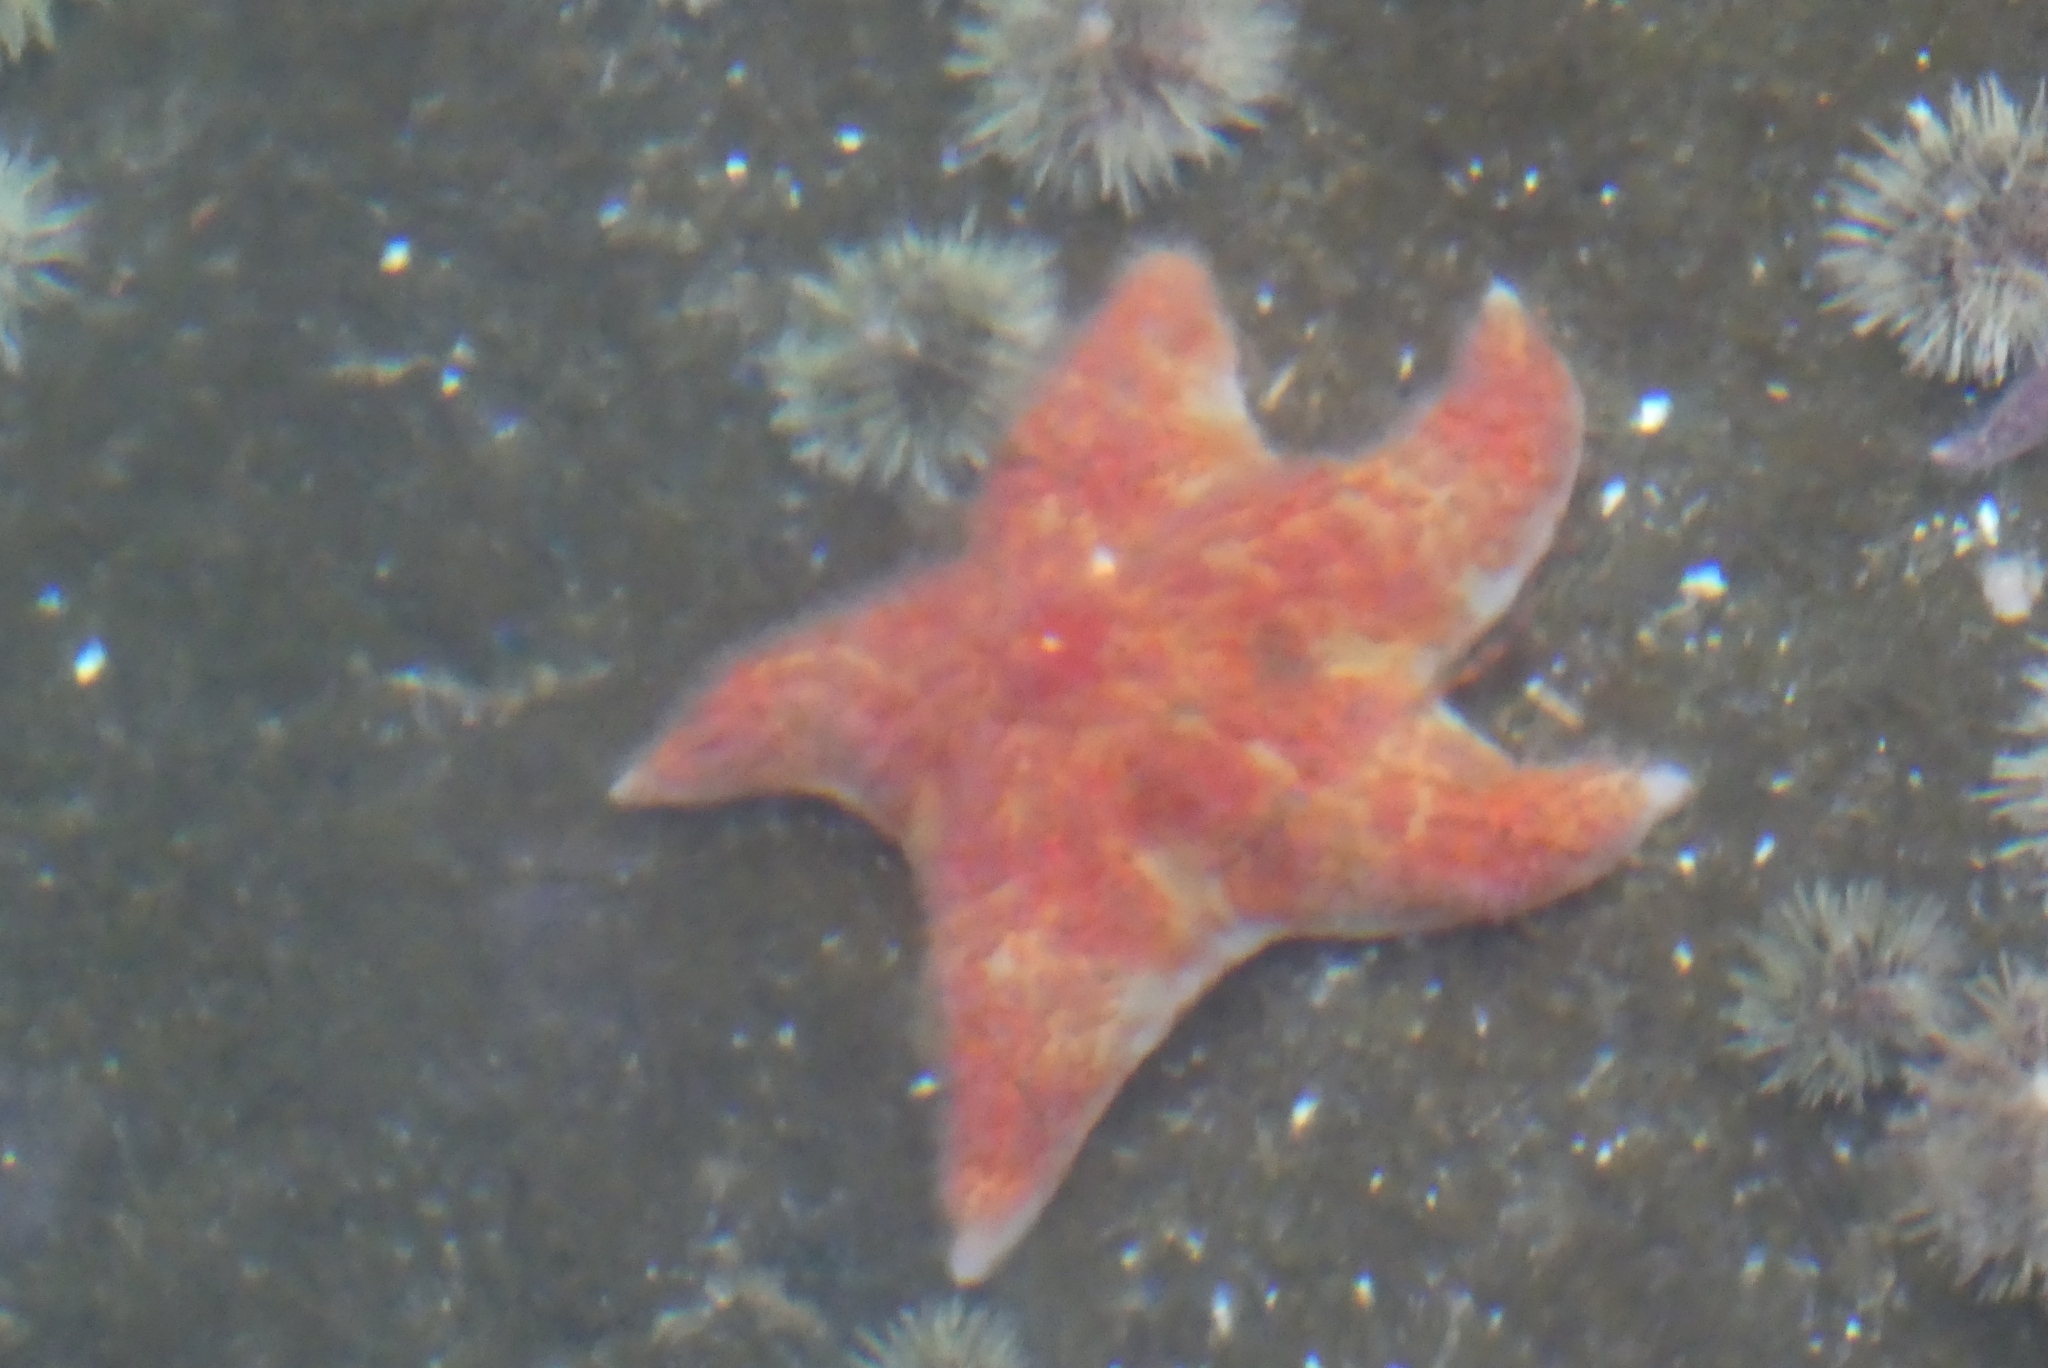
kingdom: Animalia
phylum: Echinodermata
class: Asteroidea
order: Valvatida
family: Asteropseidae
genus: Dermasterias
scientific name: Dermasterias imbricata
